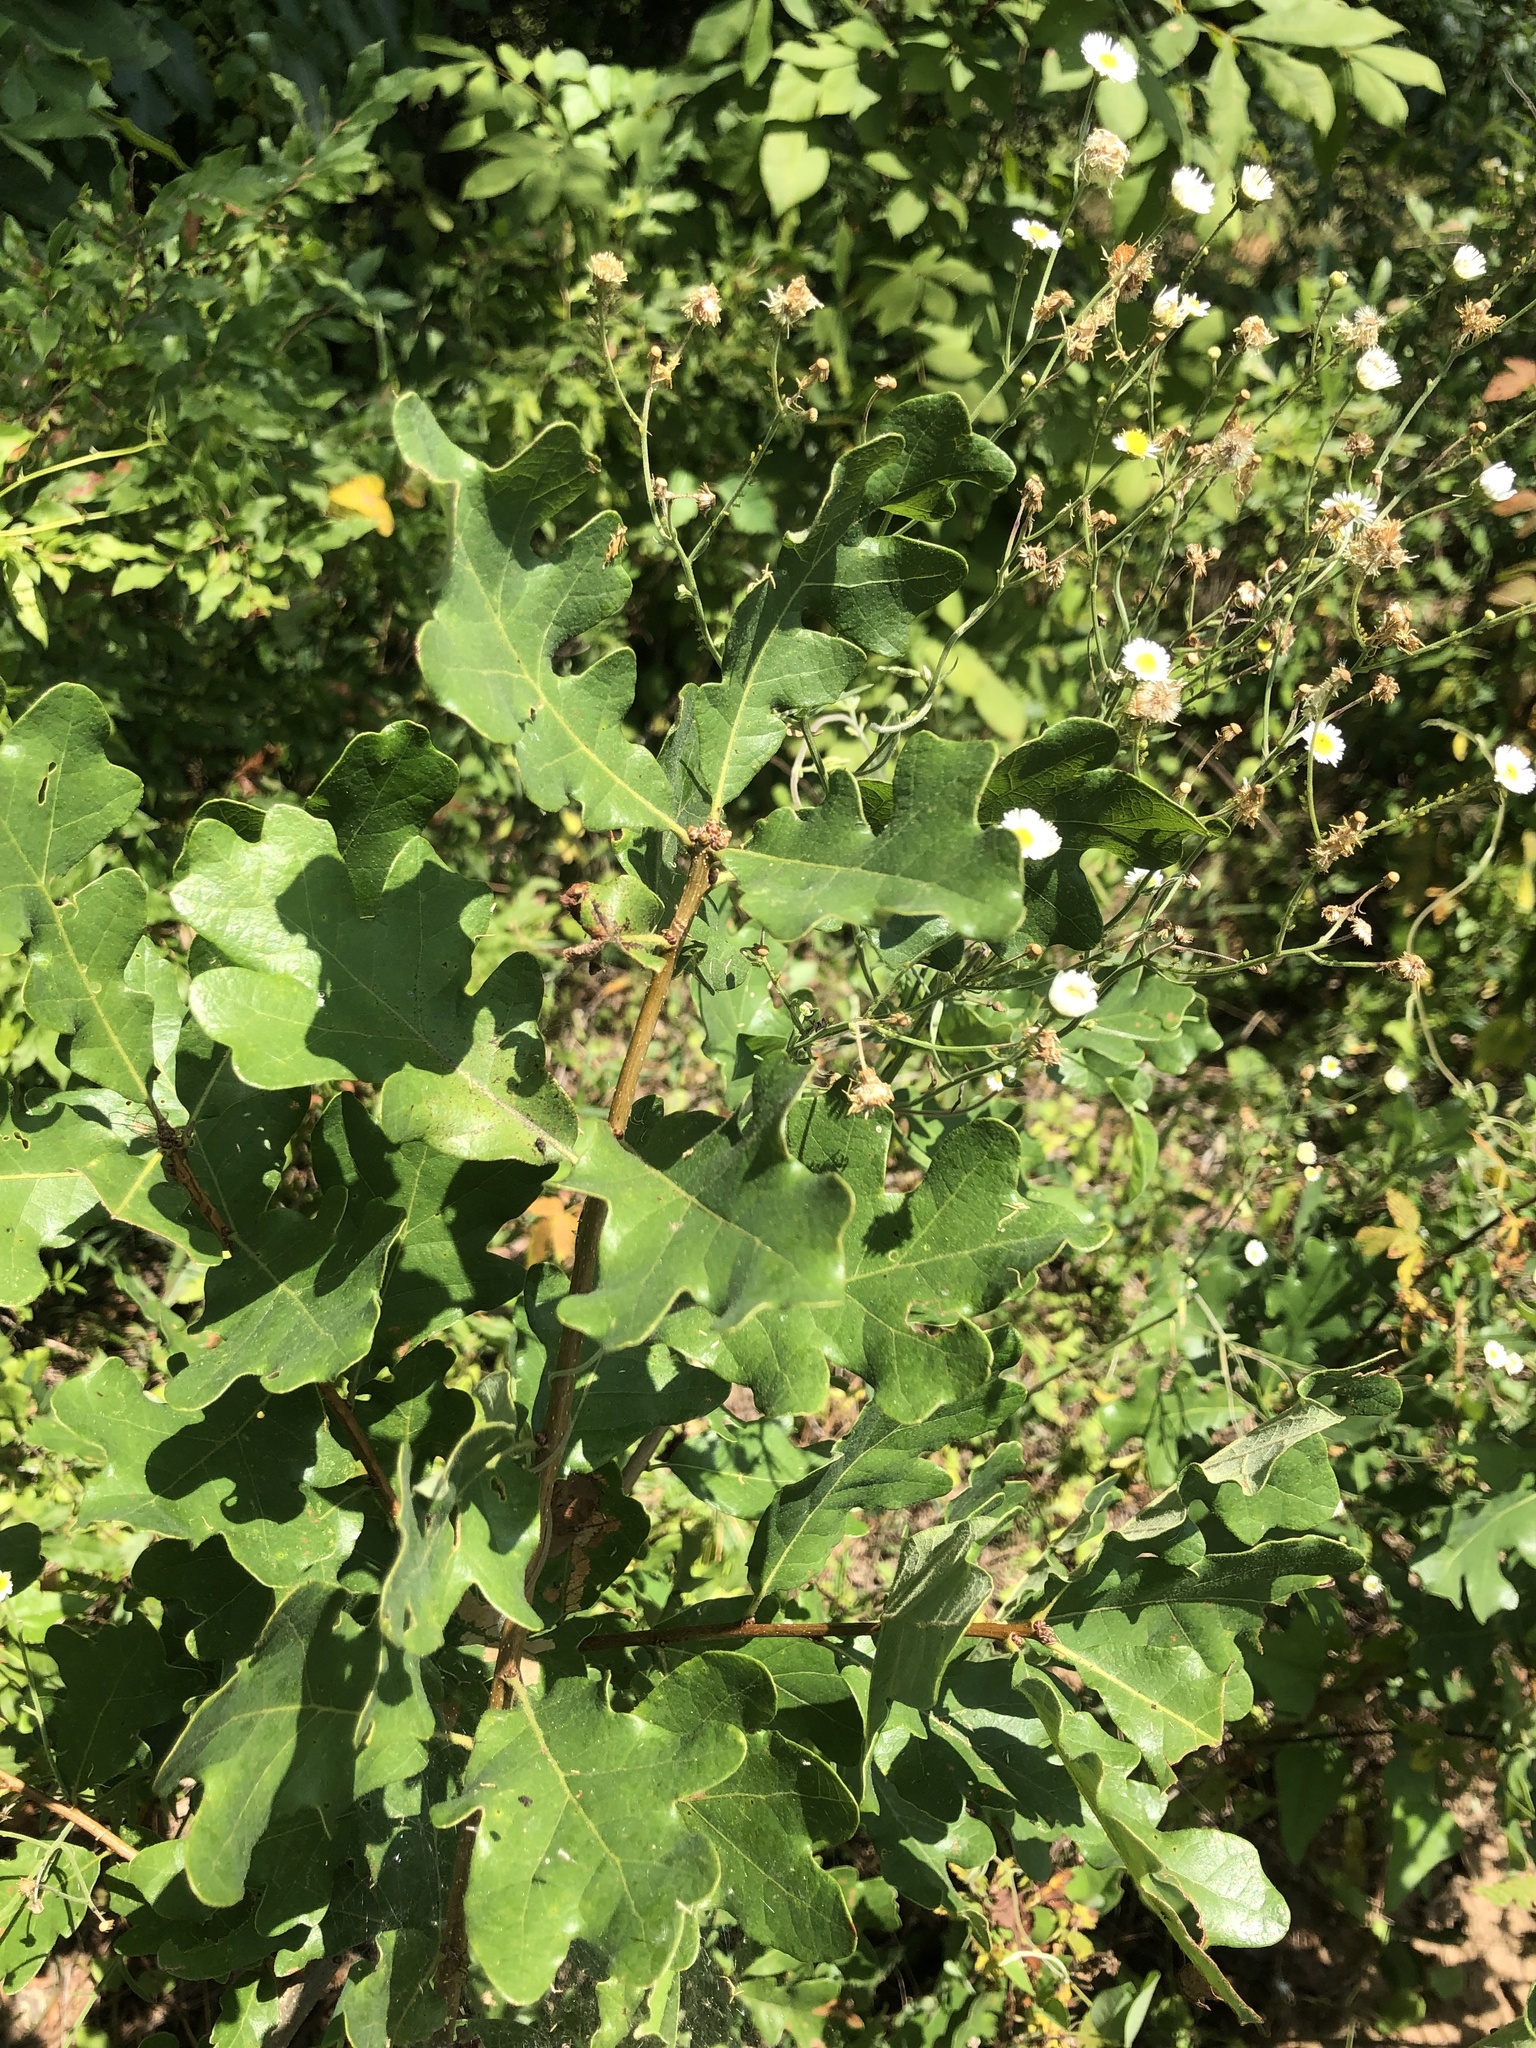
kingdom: Plantae
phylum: Tracheophyta
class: Magnoliopsida
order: Fagales
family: Fagaceae
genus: Quercus
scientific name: Quercus margaretiae
